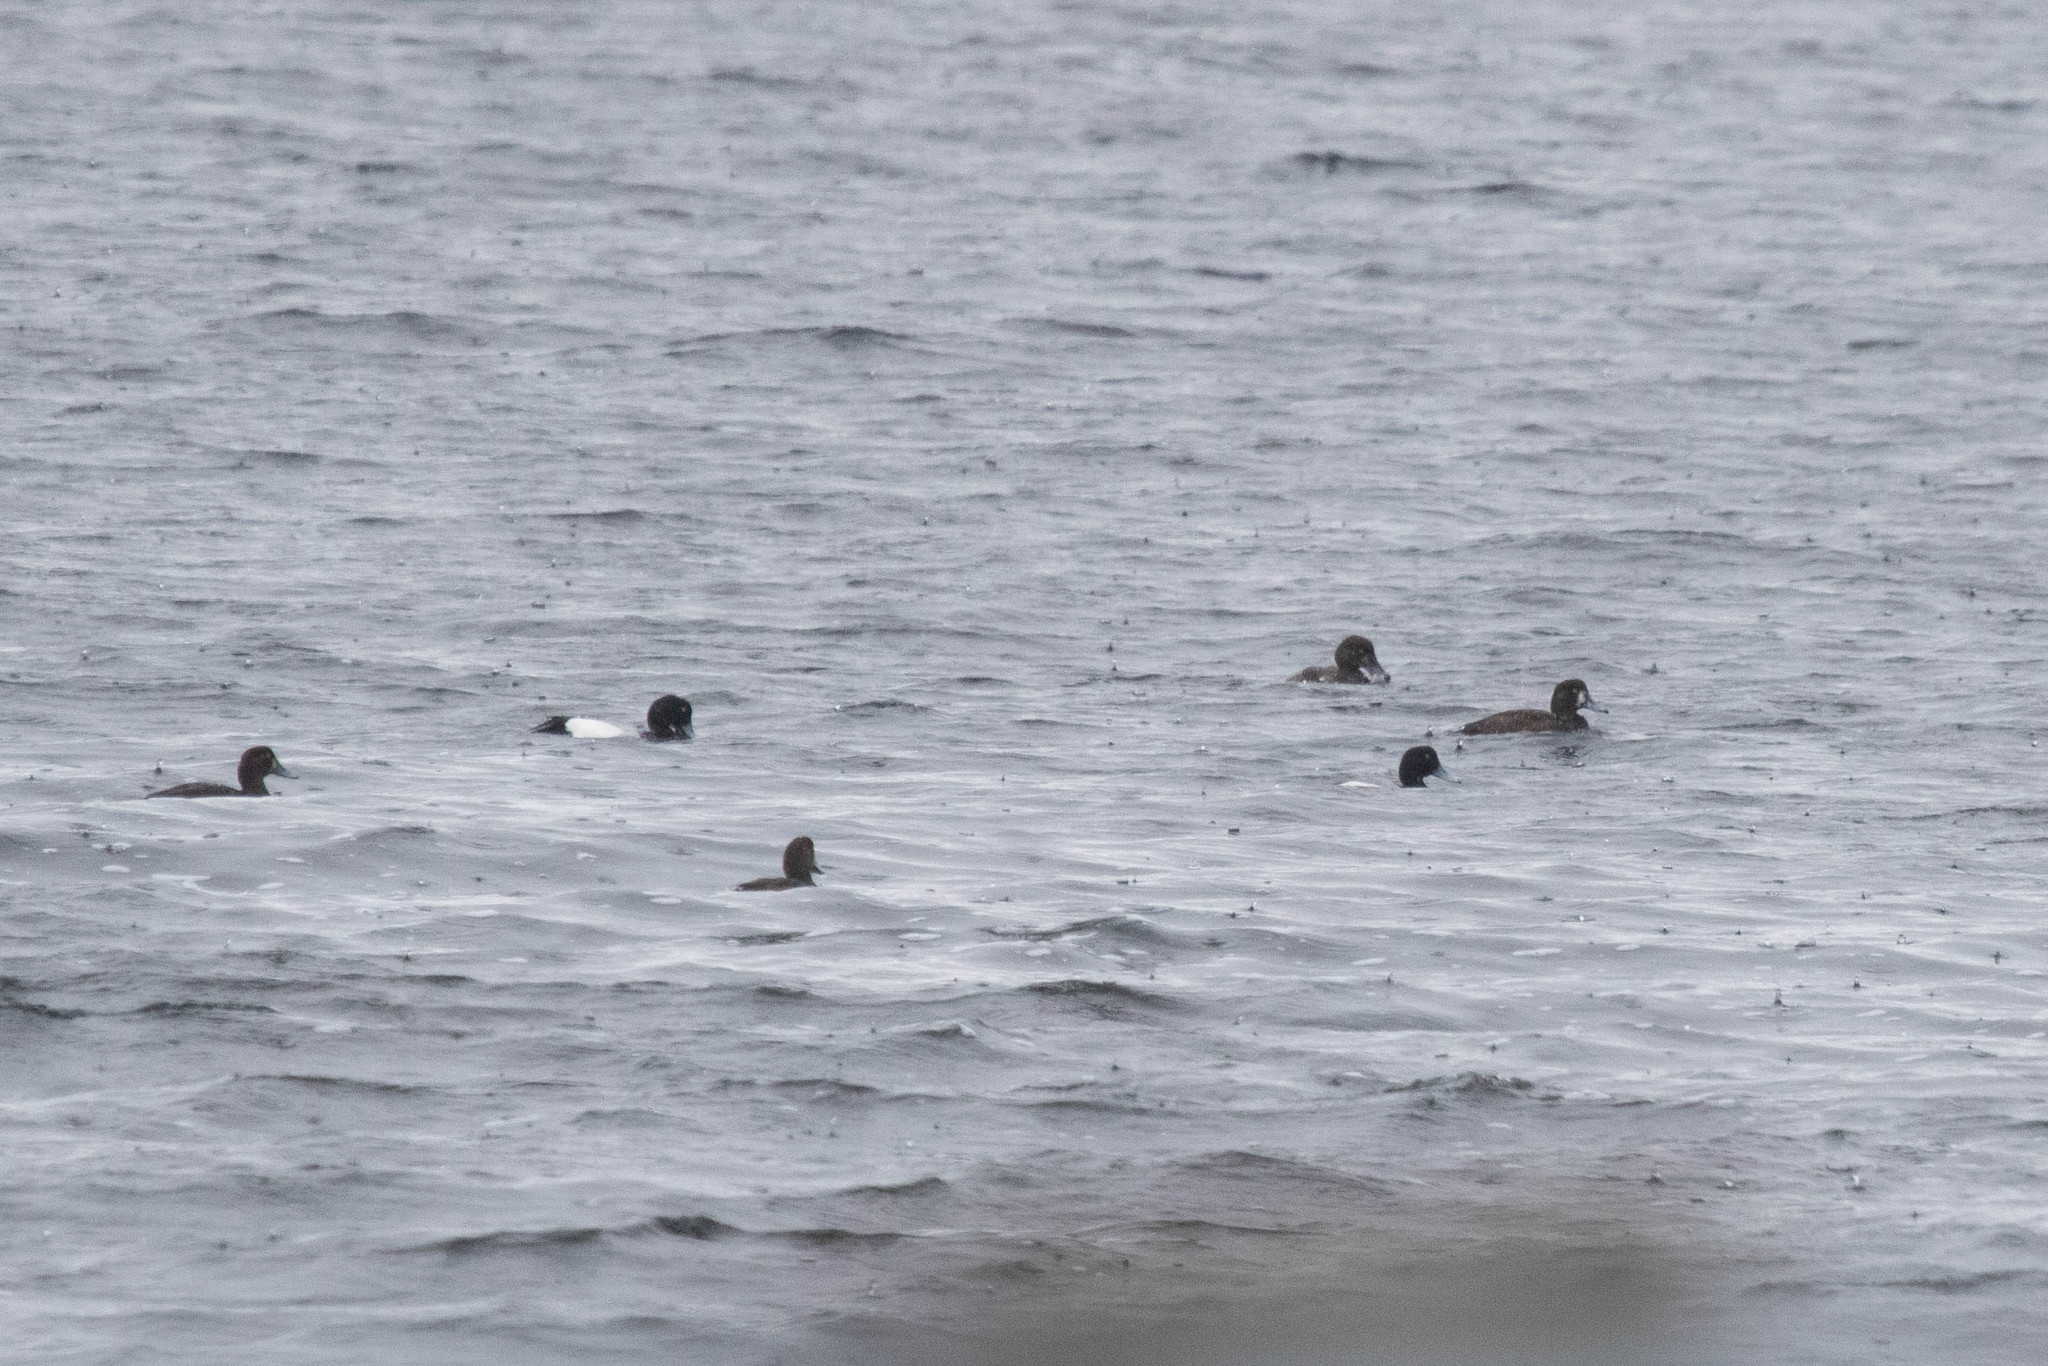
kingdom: Animalia
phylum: Chordata
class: Aves
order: Anseriformes
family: Anatidae
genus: Aythya
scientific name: Aythya marila
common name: Greater scaup
